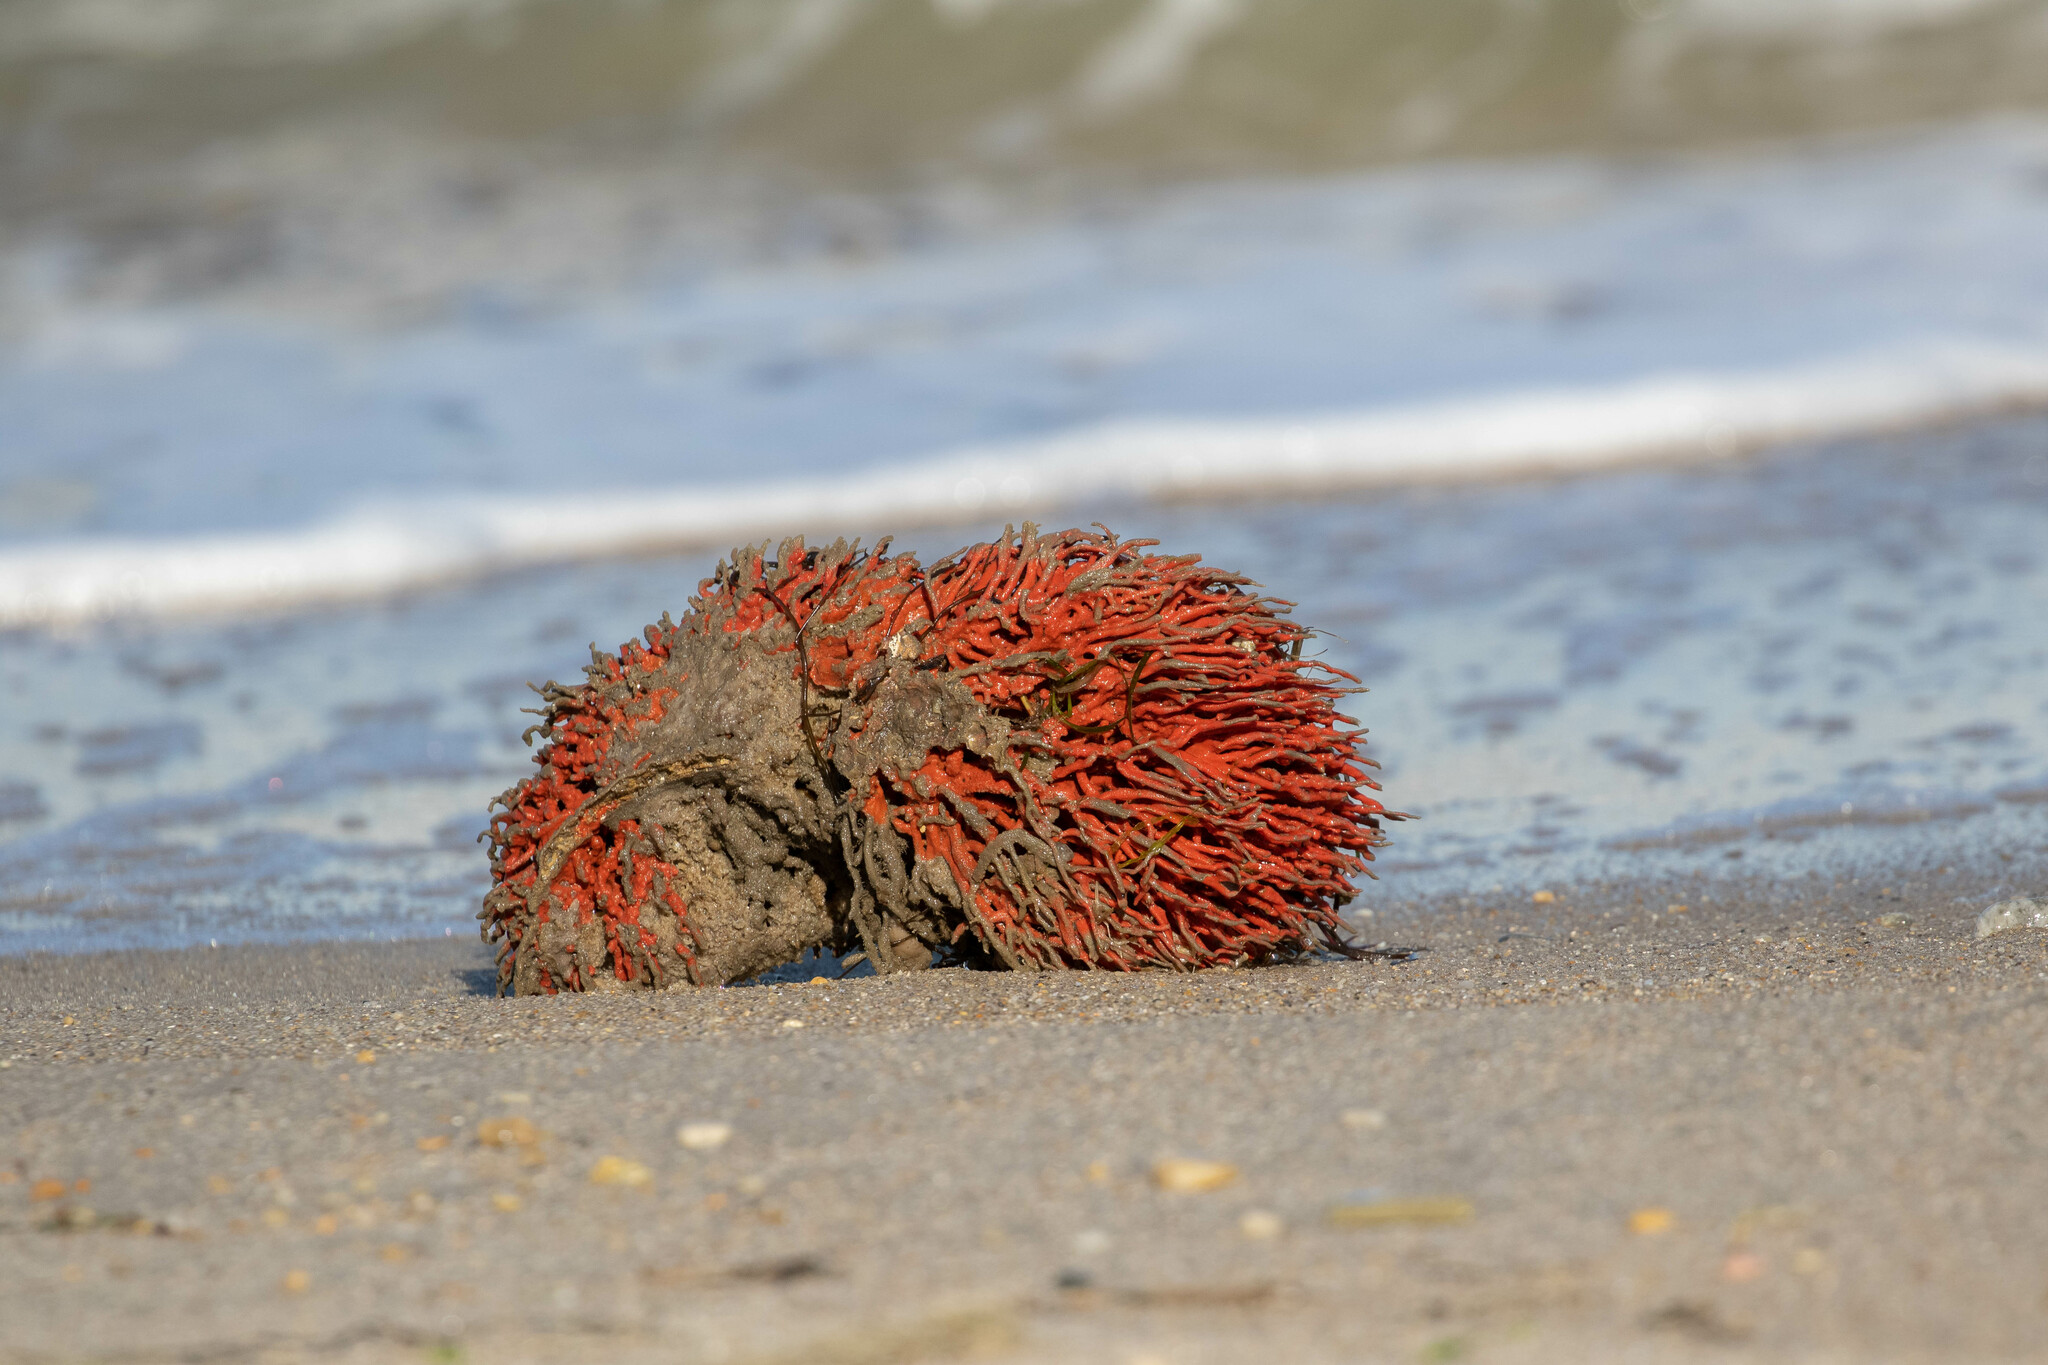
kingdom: Animalia
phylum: Porifera
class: Demospongiae
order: Poecilosclerida
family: Microcionidae
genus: Clathria
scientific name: Clathria prolifera
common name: Red beard sponge
